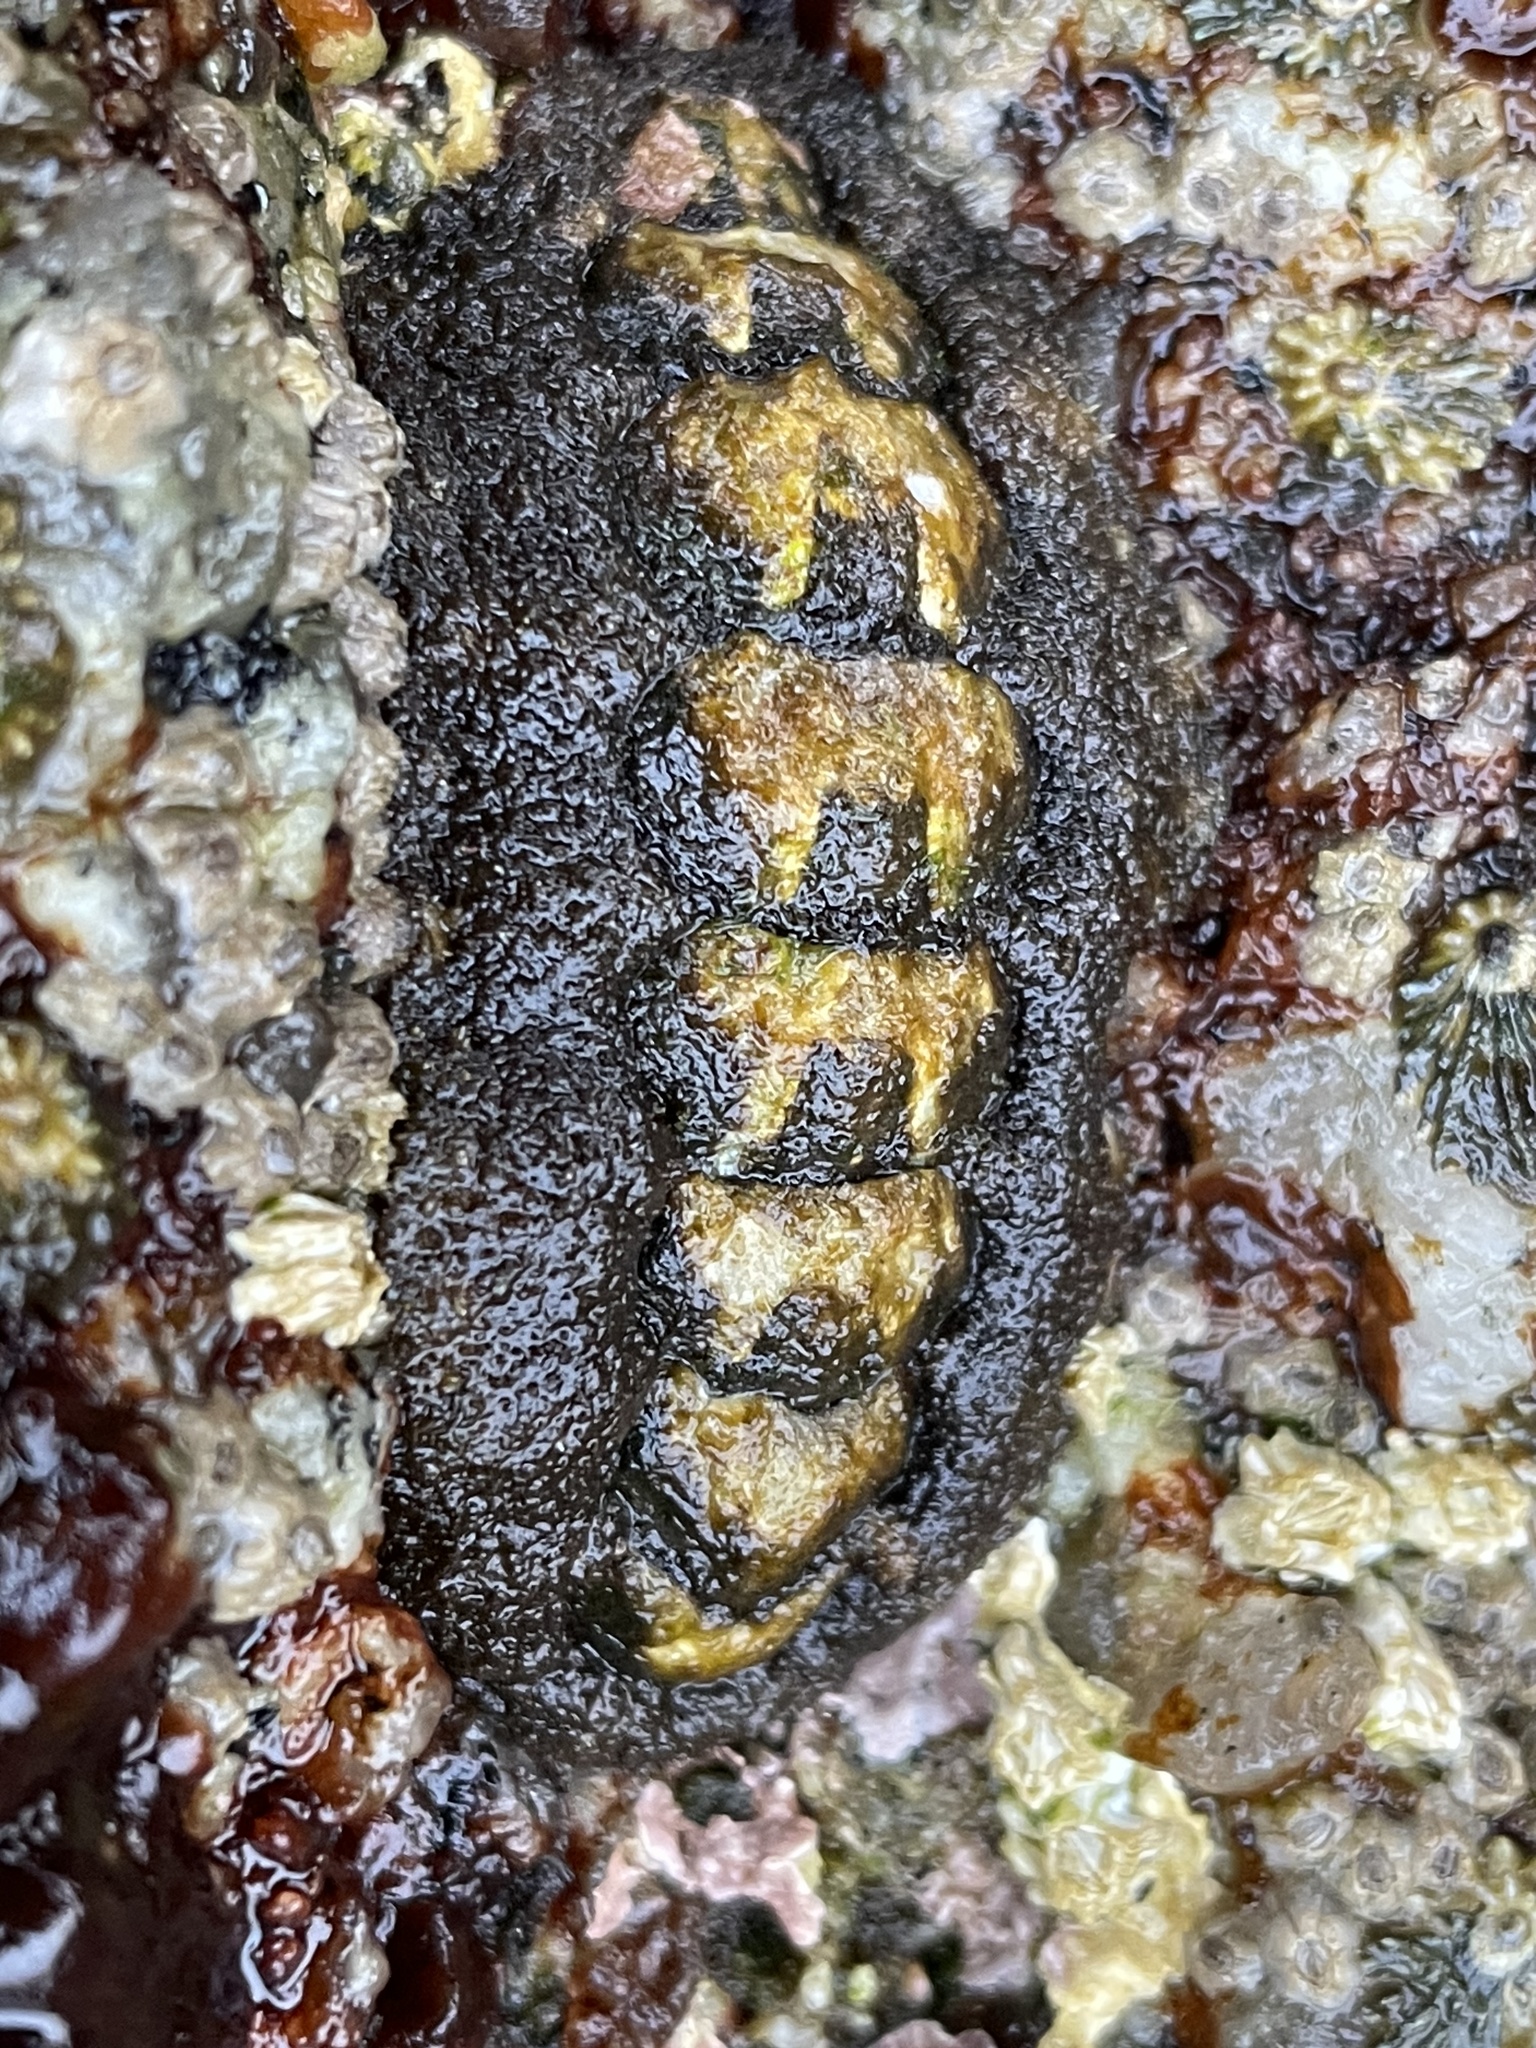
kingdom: Animalia
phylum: Mollusca
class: Polyplacophora
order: Chitonida
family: Tonicellidae
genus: Nuttallina
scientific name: Nuttallina californica
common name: California nuttall chiton
